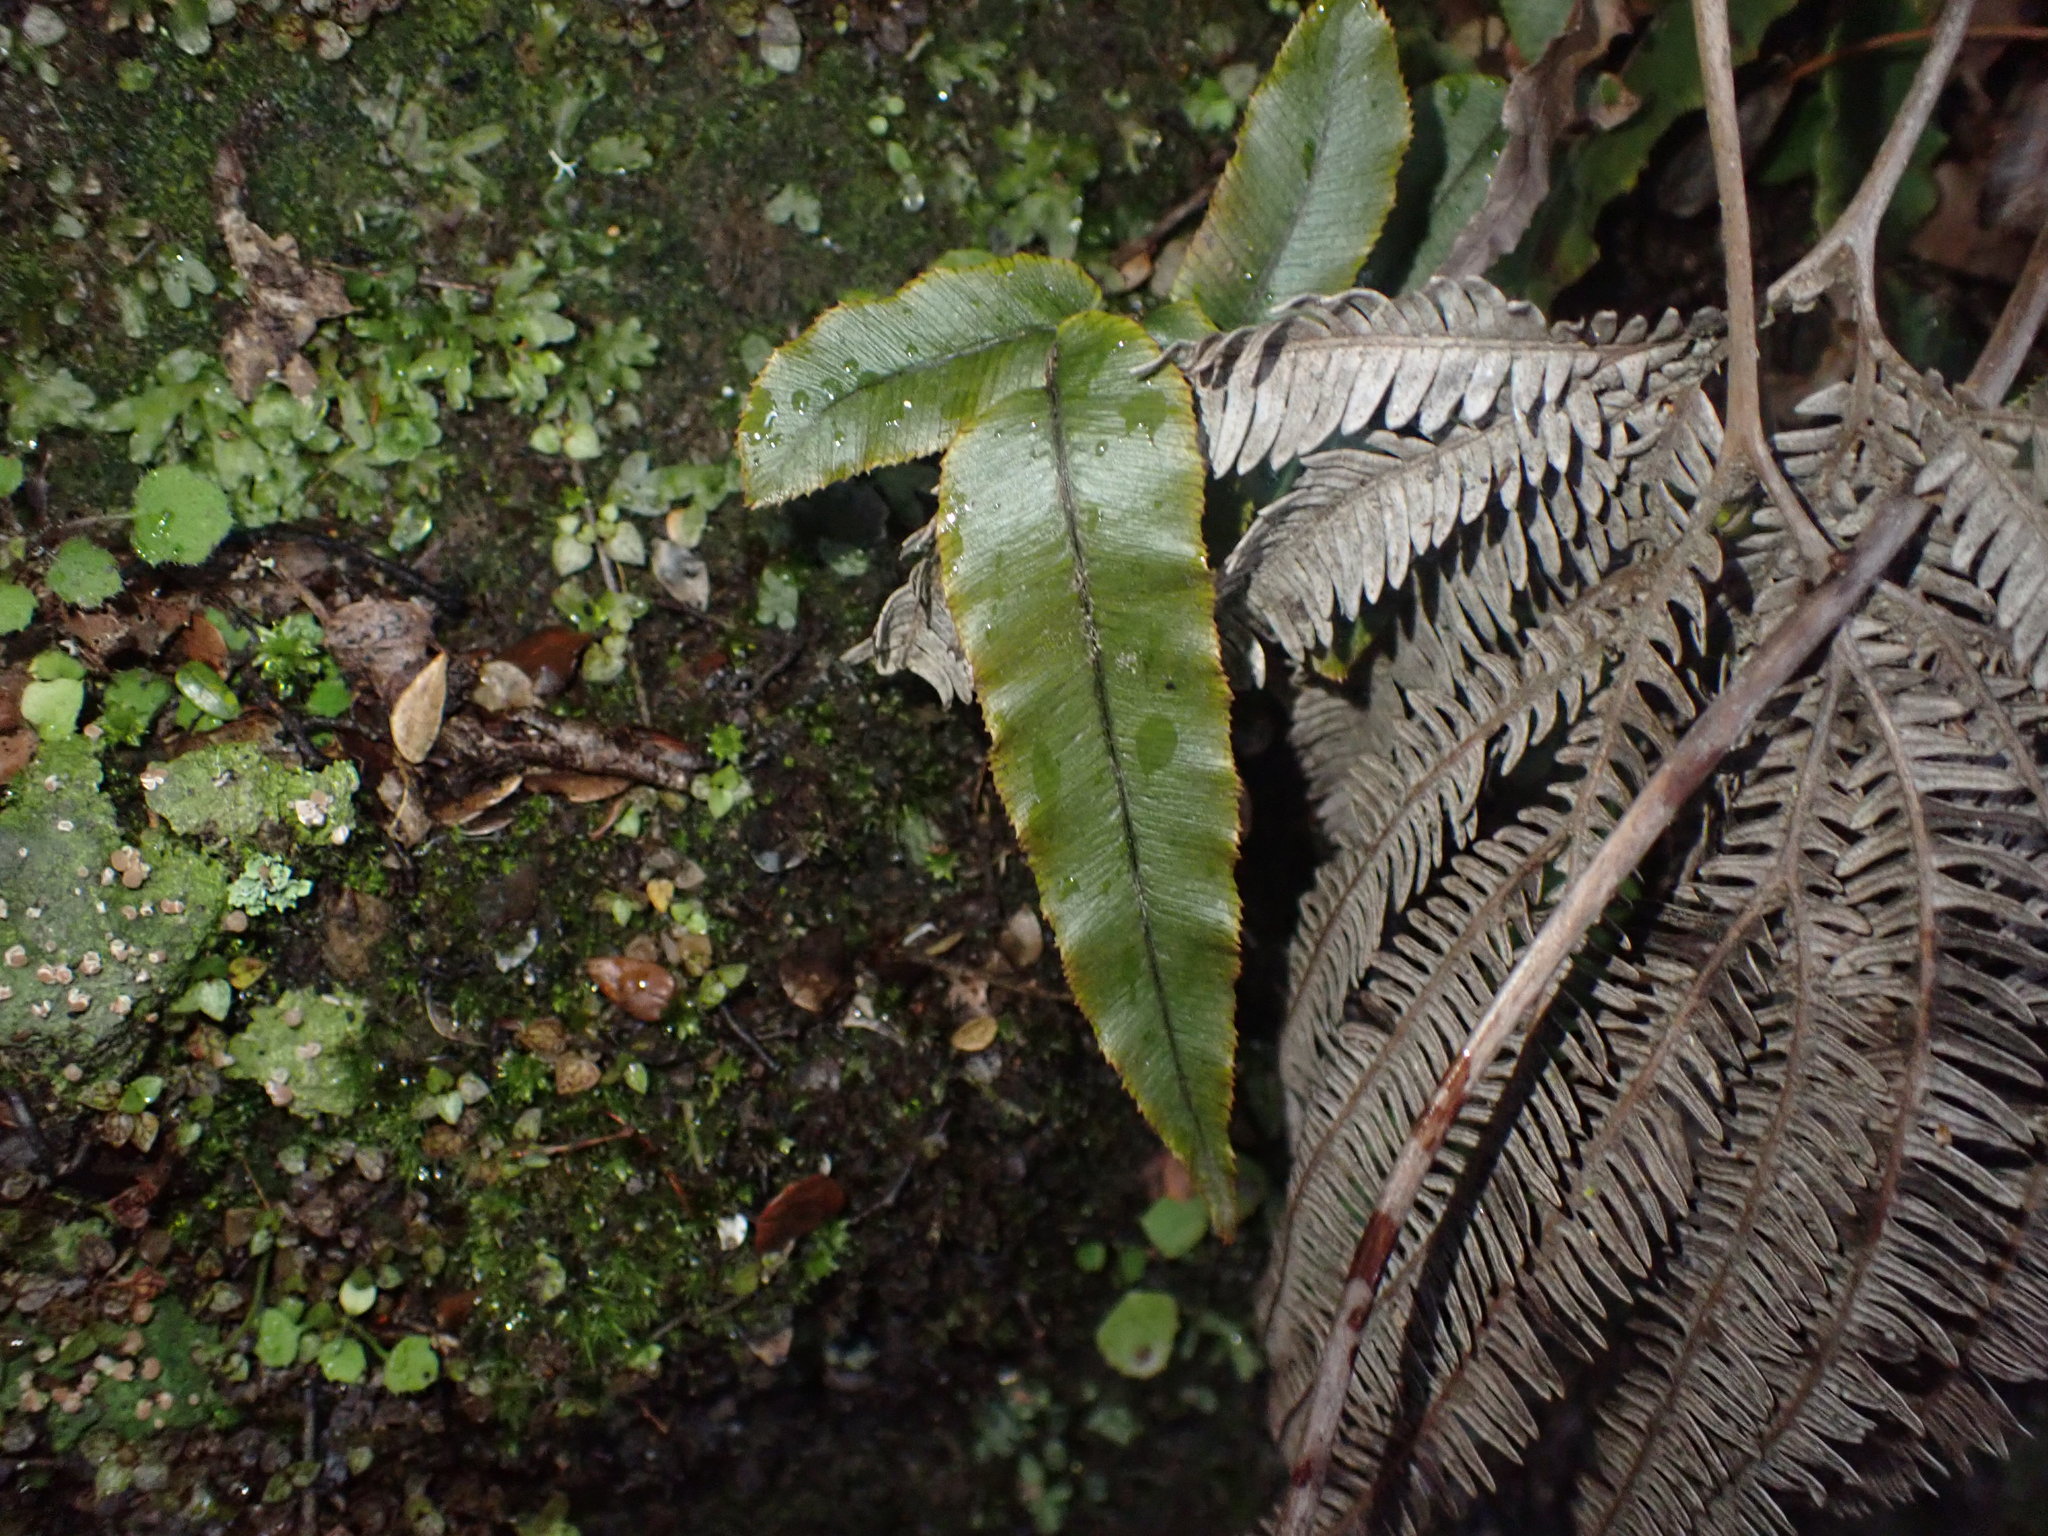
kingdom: Plantae
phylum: Tracheophyta
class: Polypodiopsida
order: Polypodiales
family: Blechnaceae
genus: Parablechnum
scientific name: Parablechnum procerum
